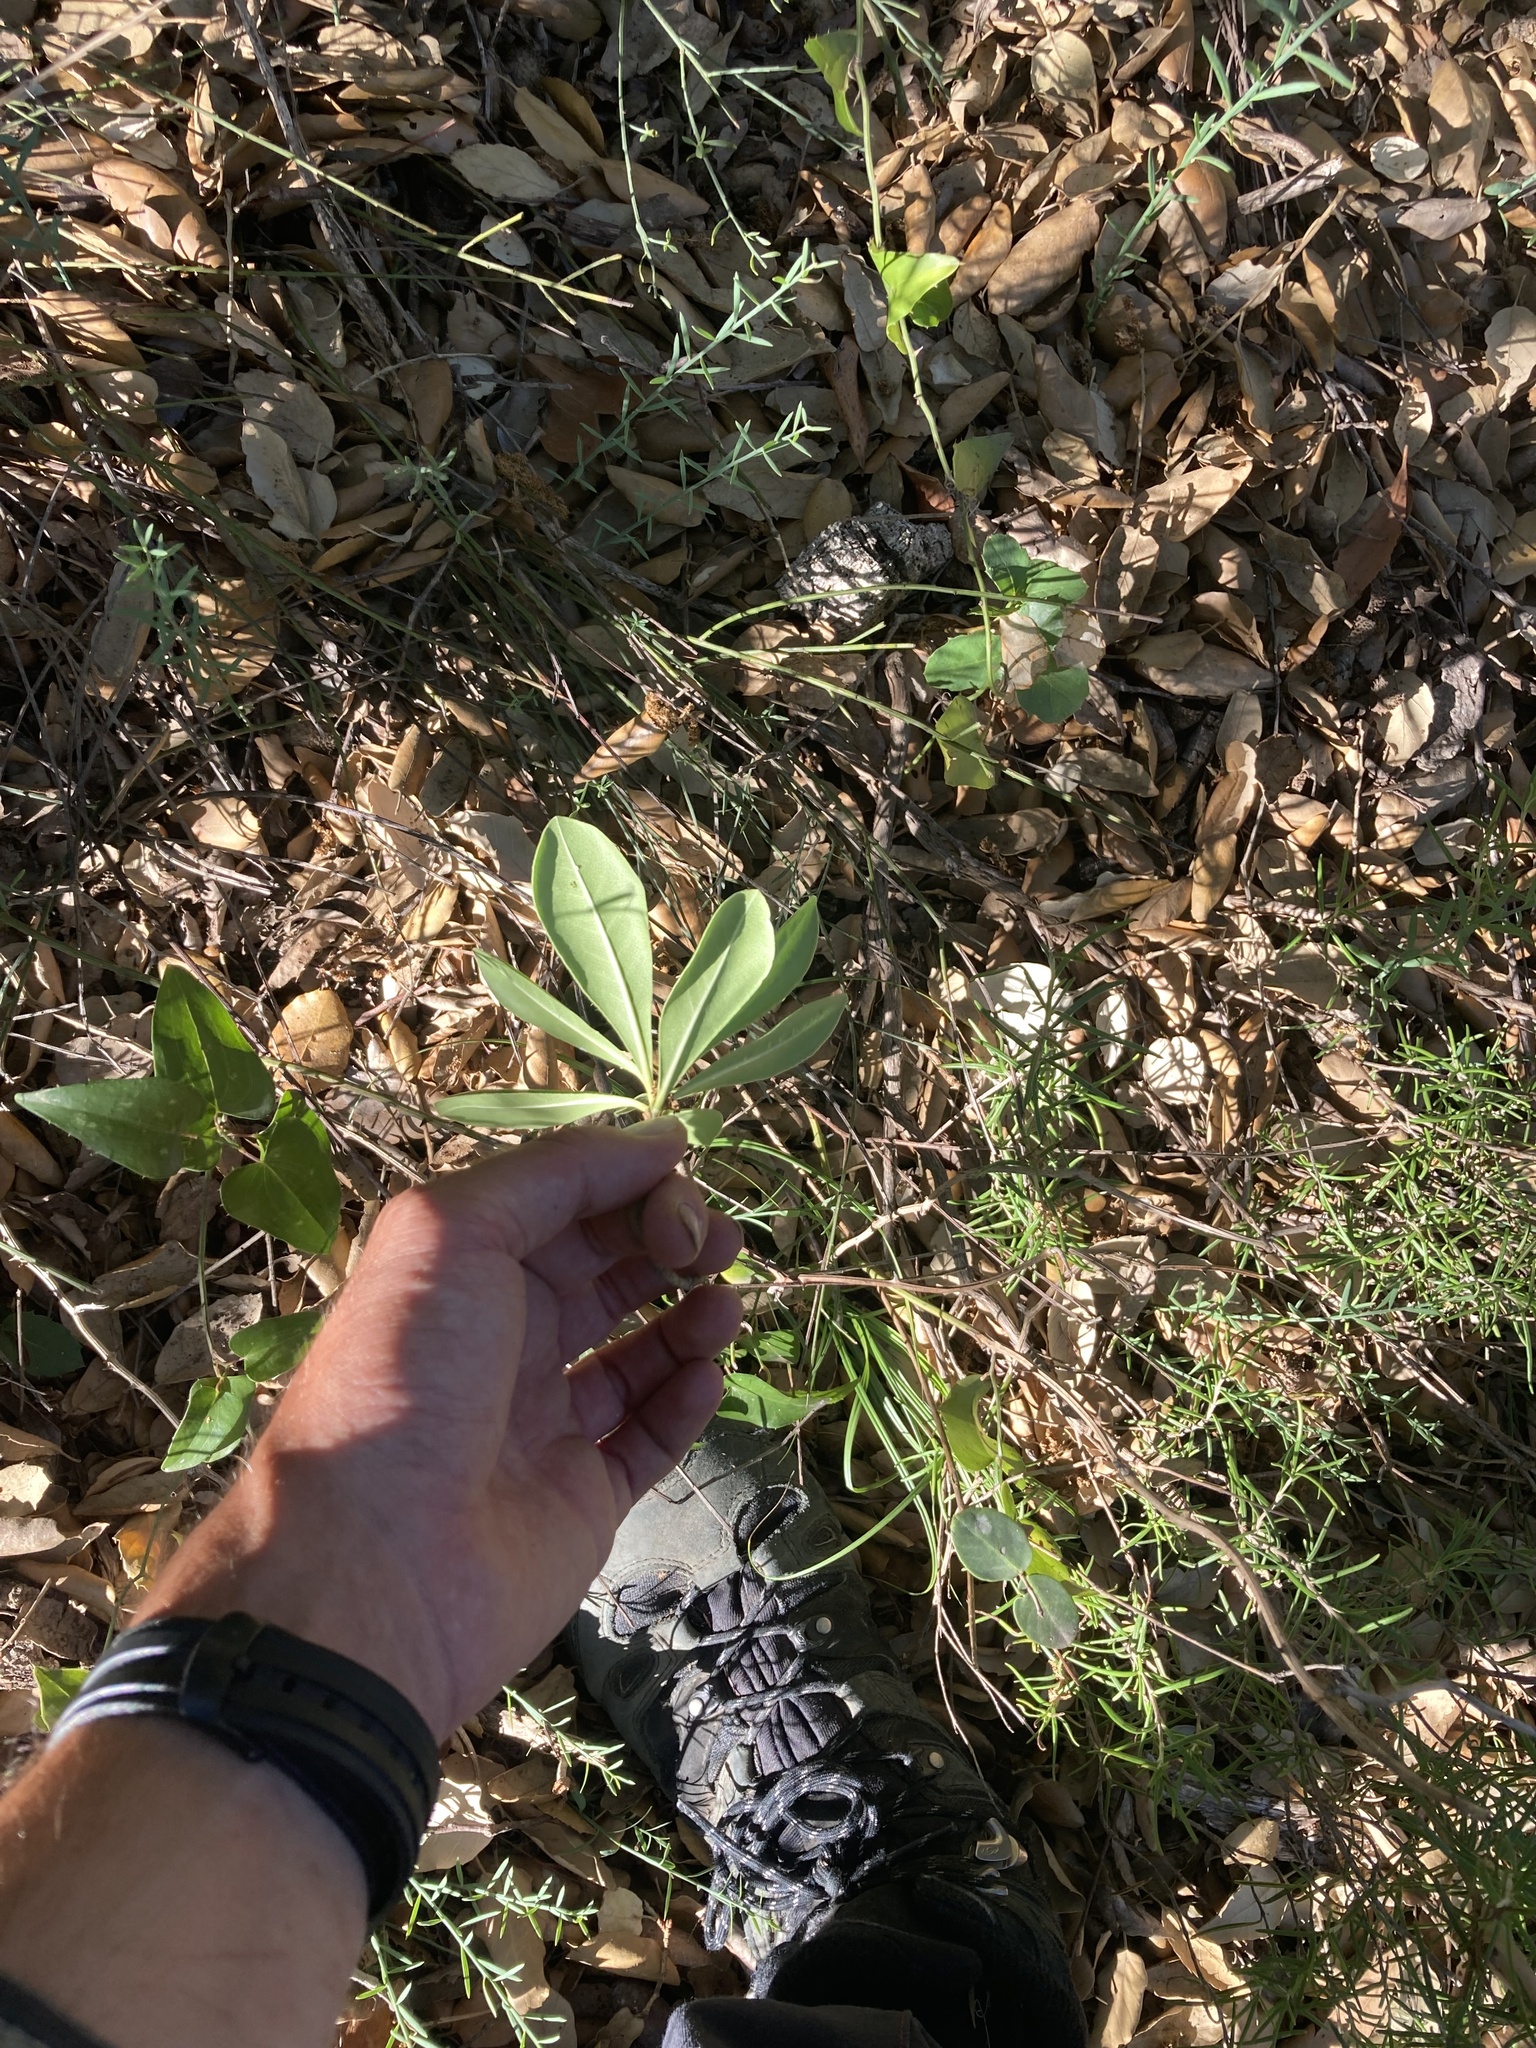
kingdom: Plantae
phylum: Tracheophyta
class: Magnoliopsida
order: Apiales
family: Pittosporaceae
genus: Pittosporum
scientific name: Pittosporum tobira
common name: Japanese cheesewood
